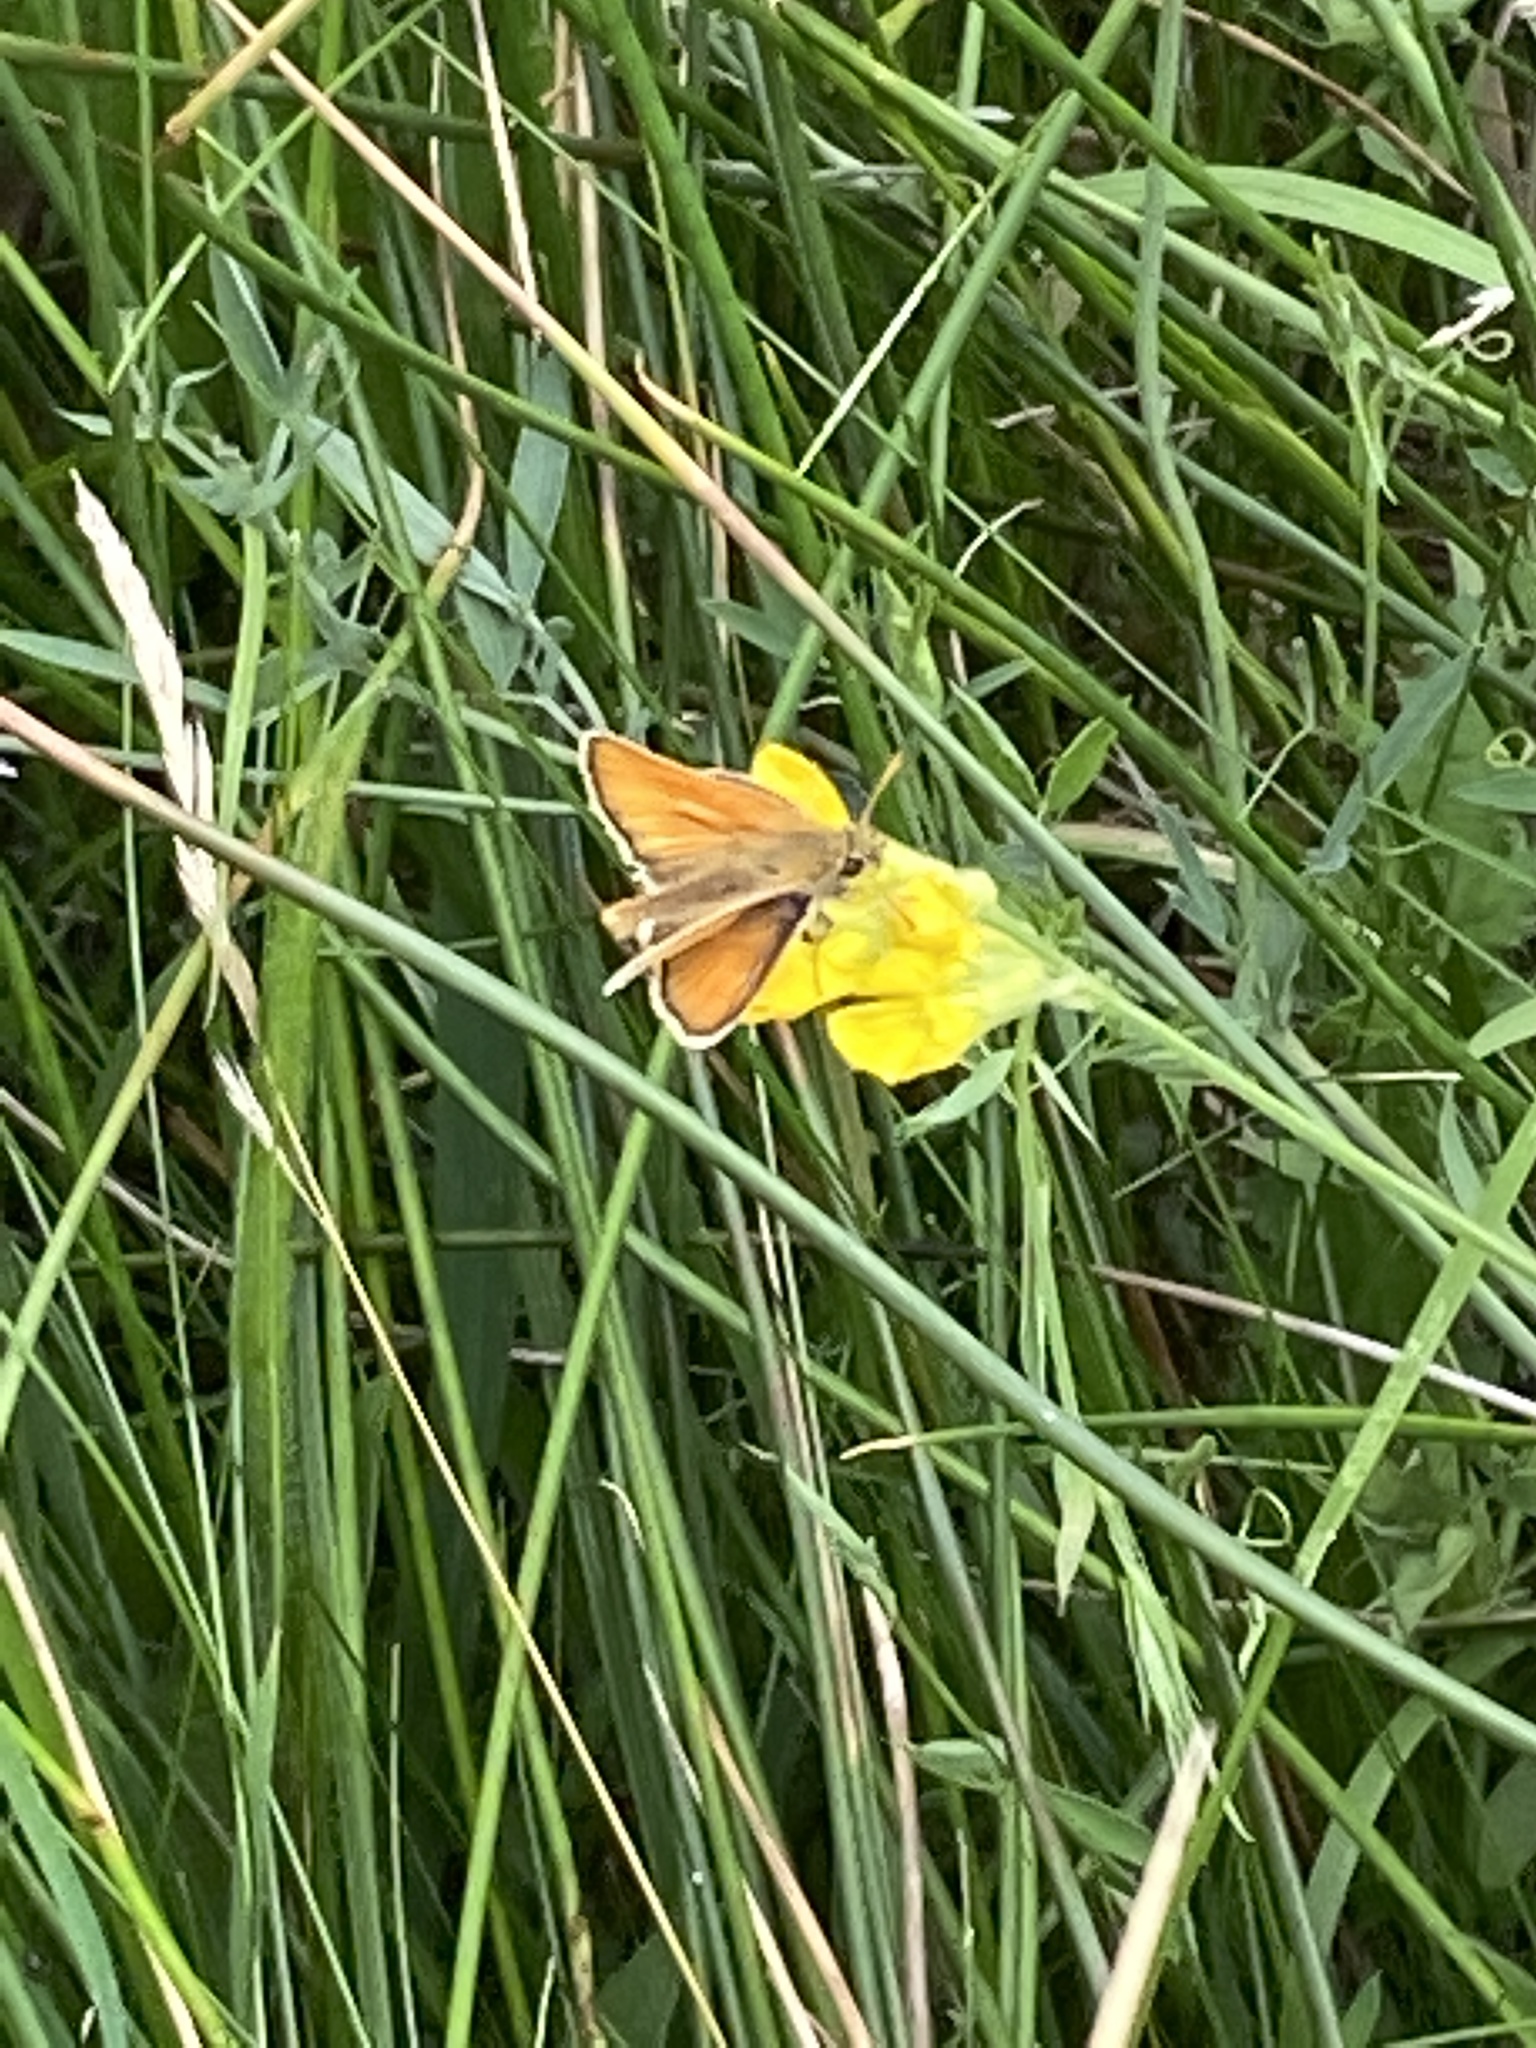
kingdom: Animalia
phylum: Arthropoda
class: Insecta
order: Lepidoptera
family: Hesperiidae
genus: Thymelicus
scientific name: Thymelicus sylvestris
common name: Small skipper
